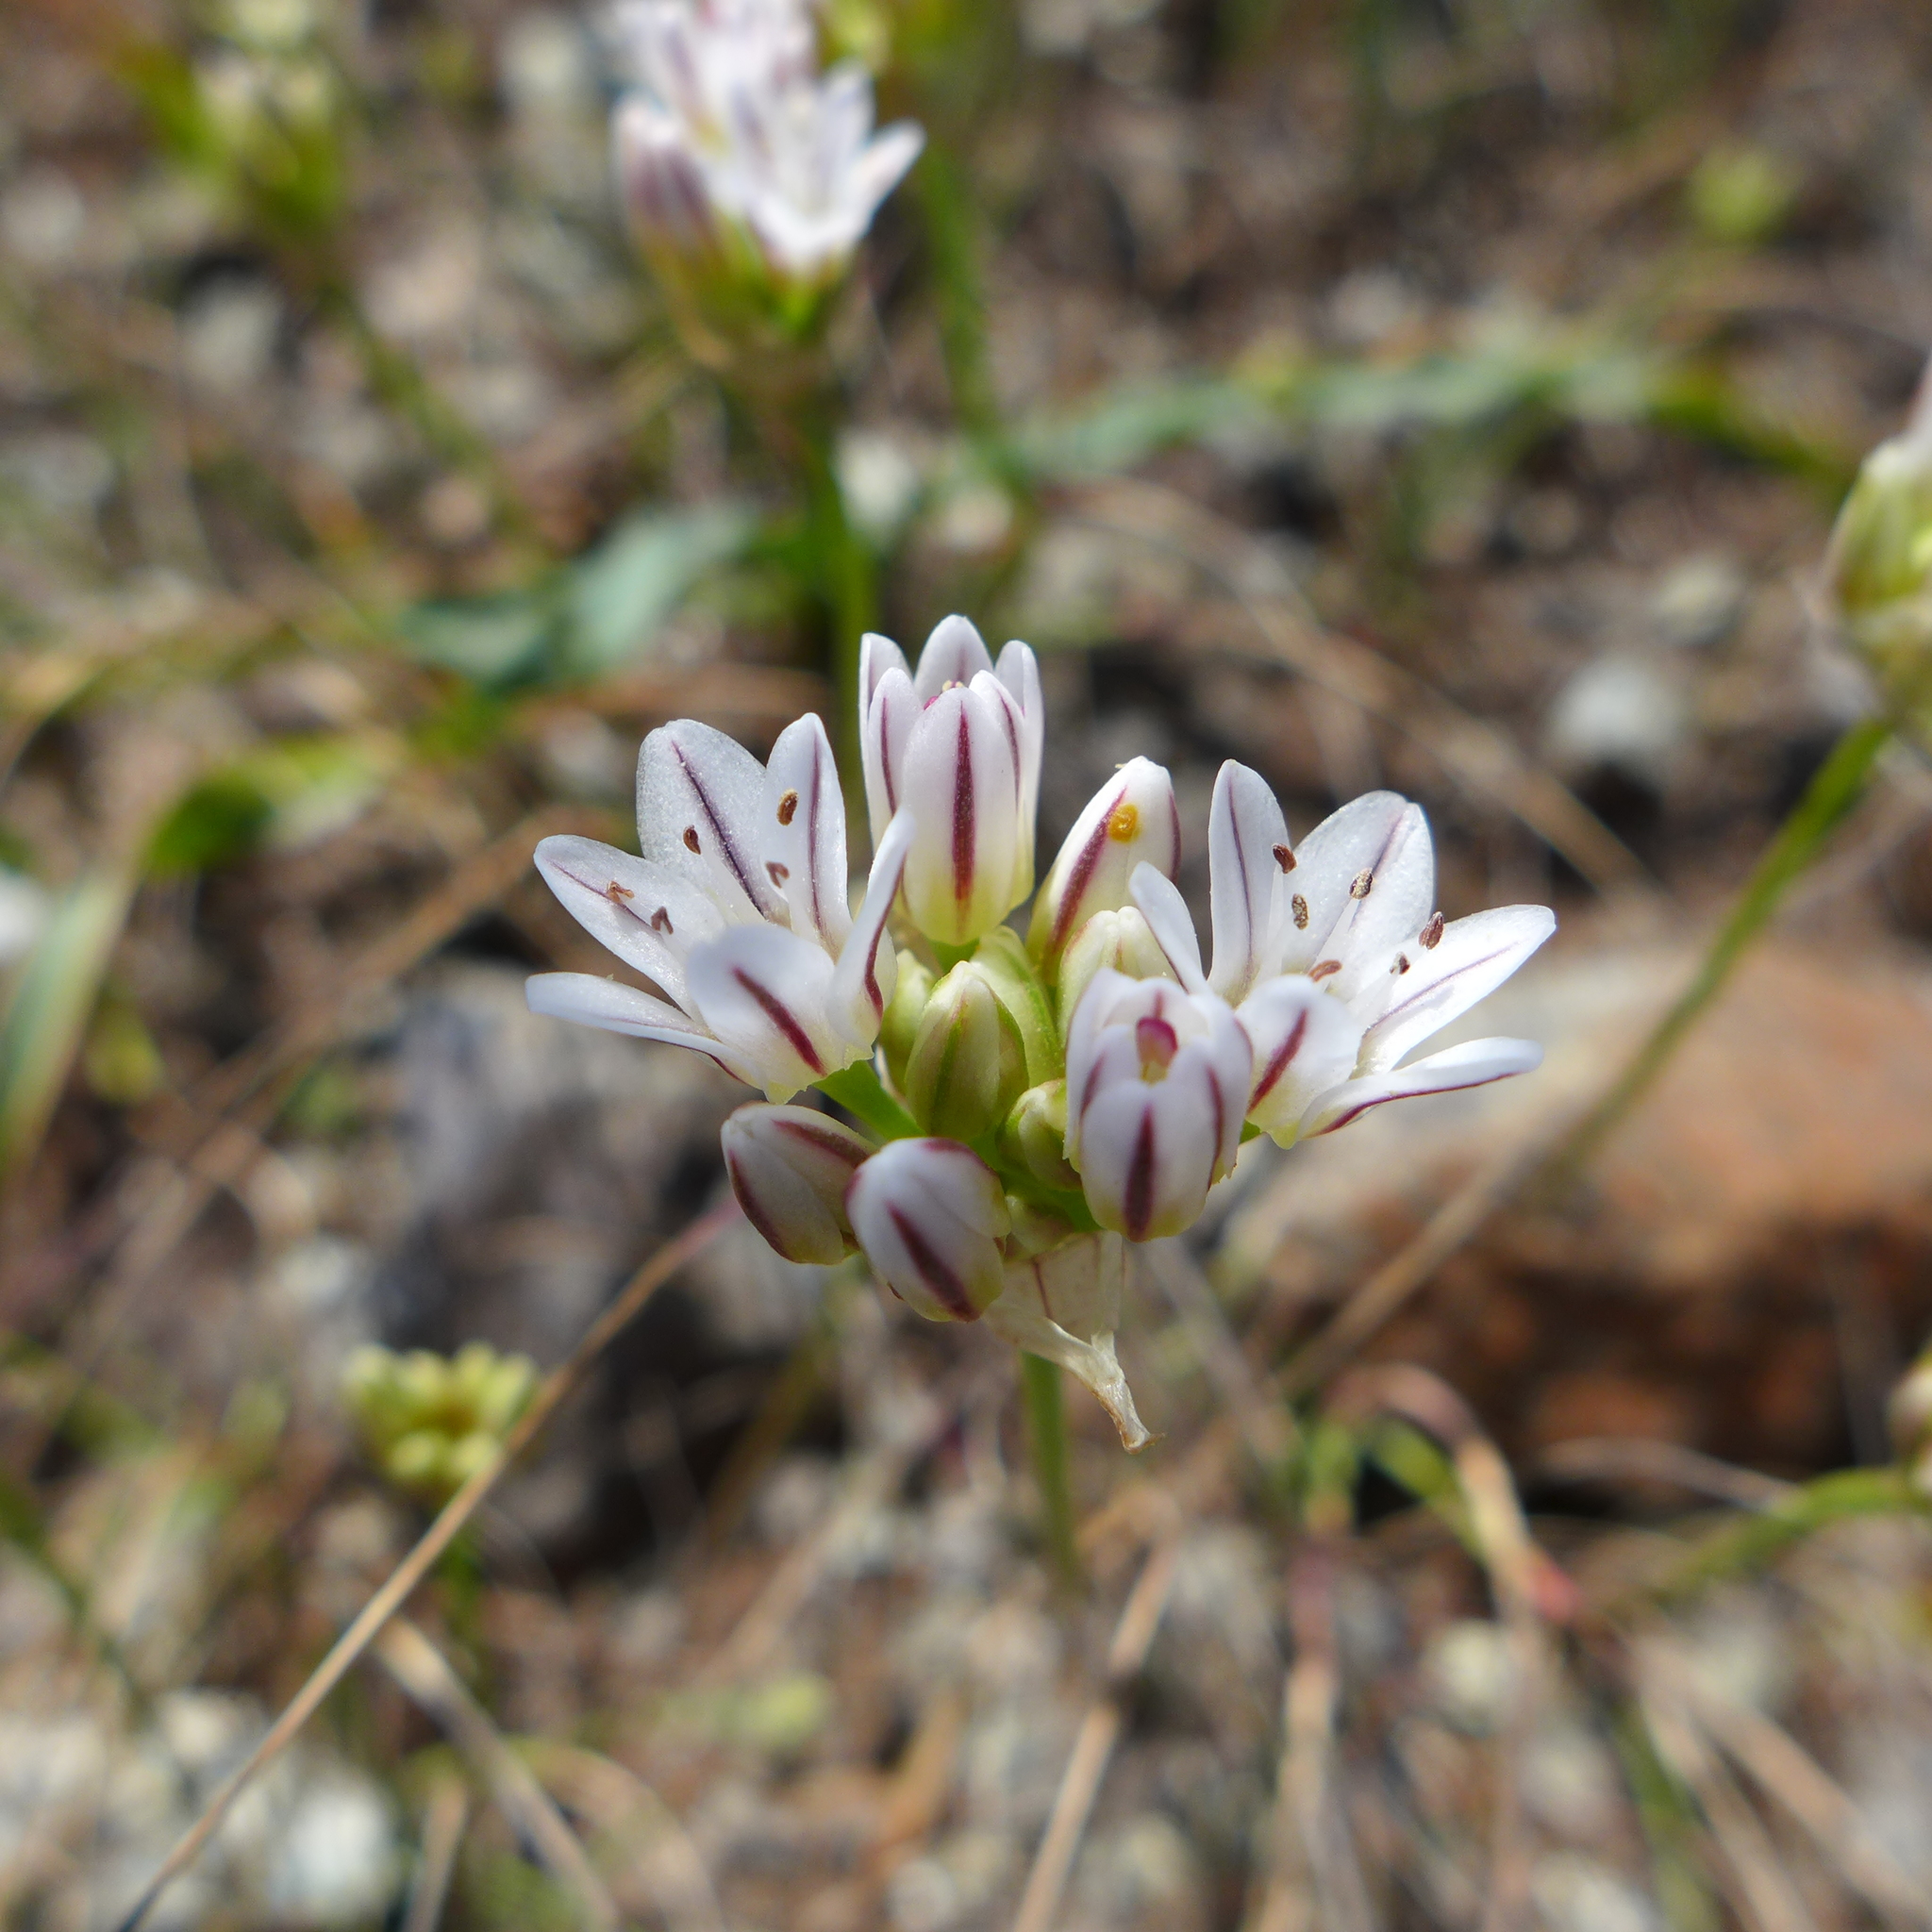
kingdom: Plantae
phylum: Tracheophyta
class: Liliopsida
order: Asparagales
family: Amaryllidaceae
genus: Allium
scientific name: Allium lacunosum
